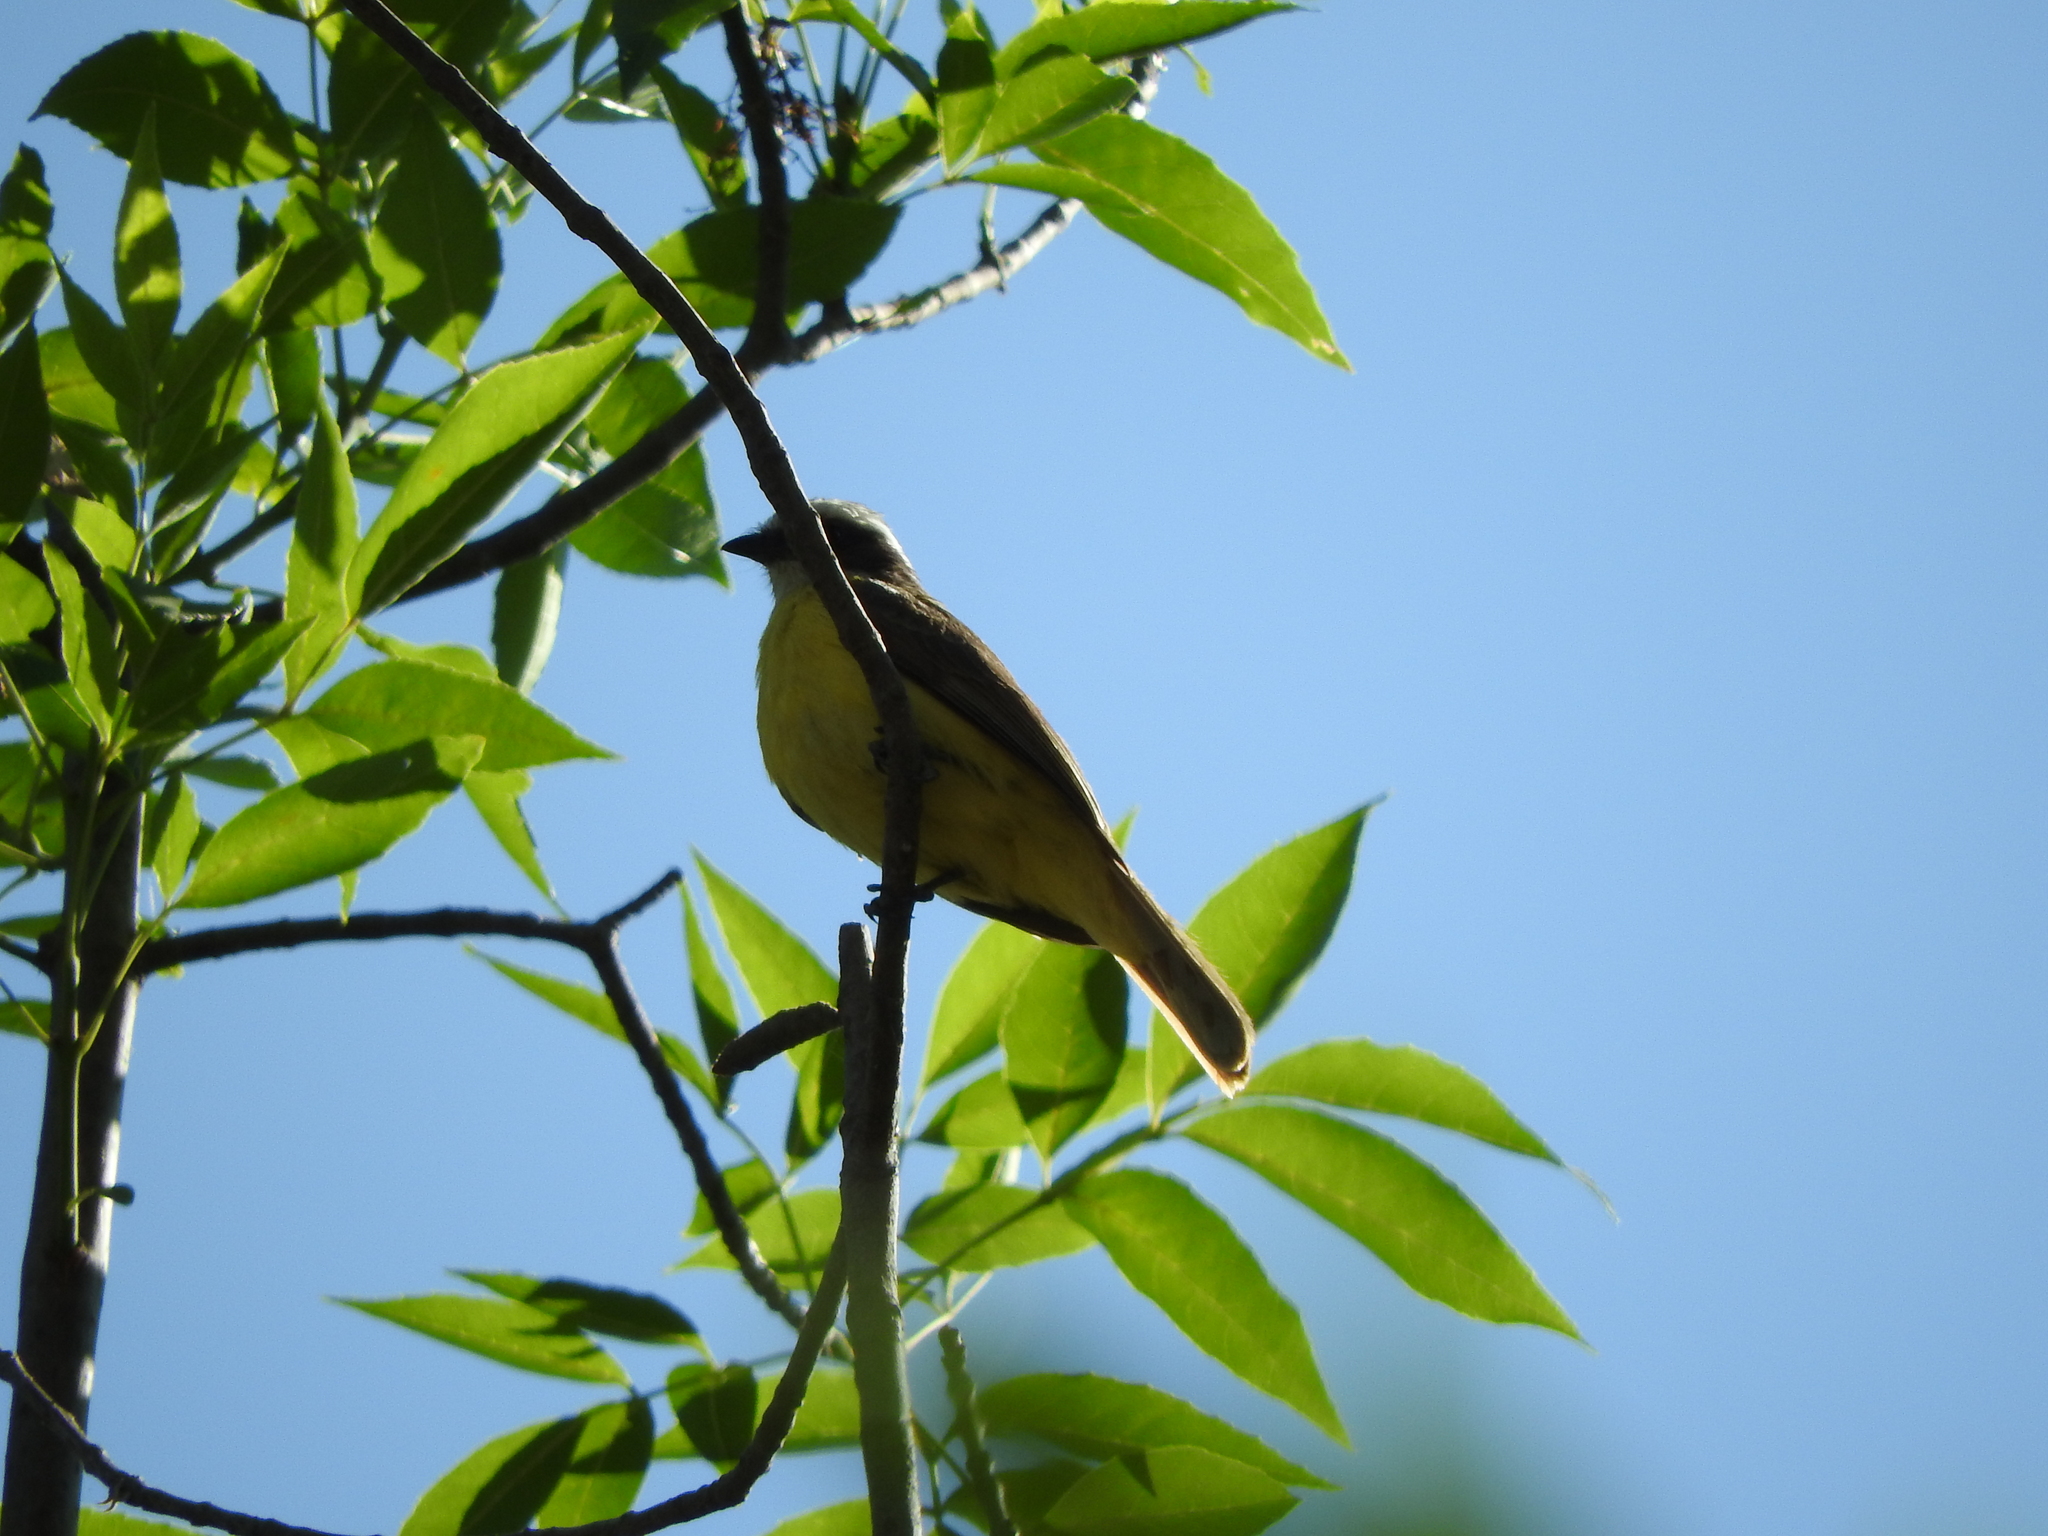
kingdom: Animalia
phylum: Chordata
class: Aves
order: Passeriformes
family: Tyrannidae
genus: Myiozetetes
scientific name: Myiozetetes similis
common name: Social flycatcher
